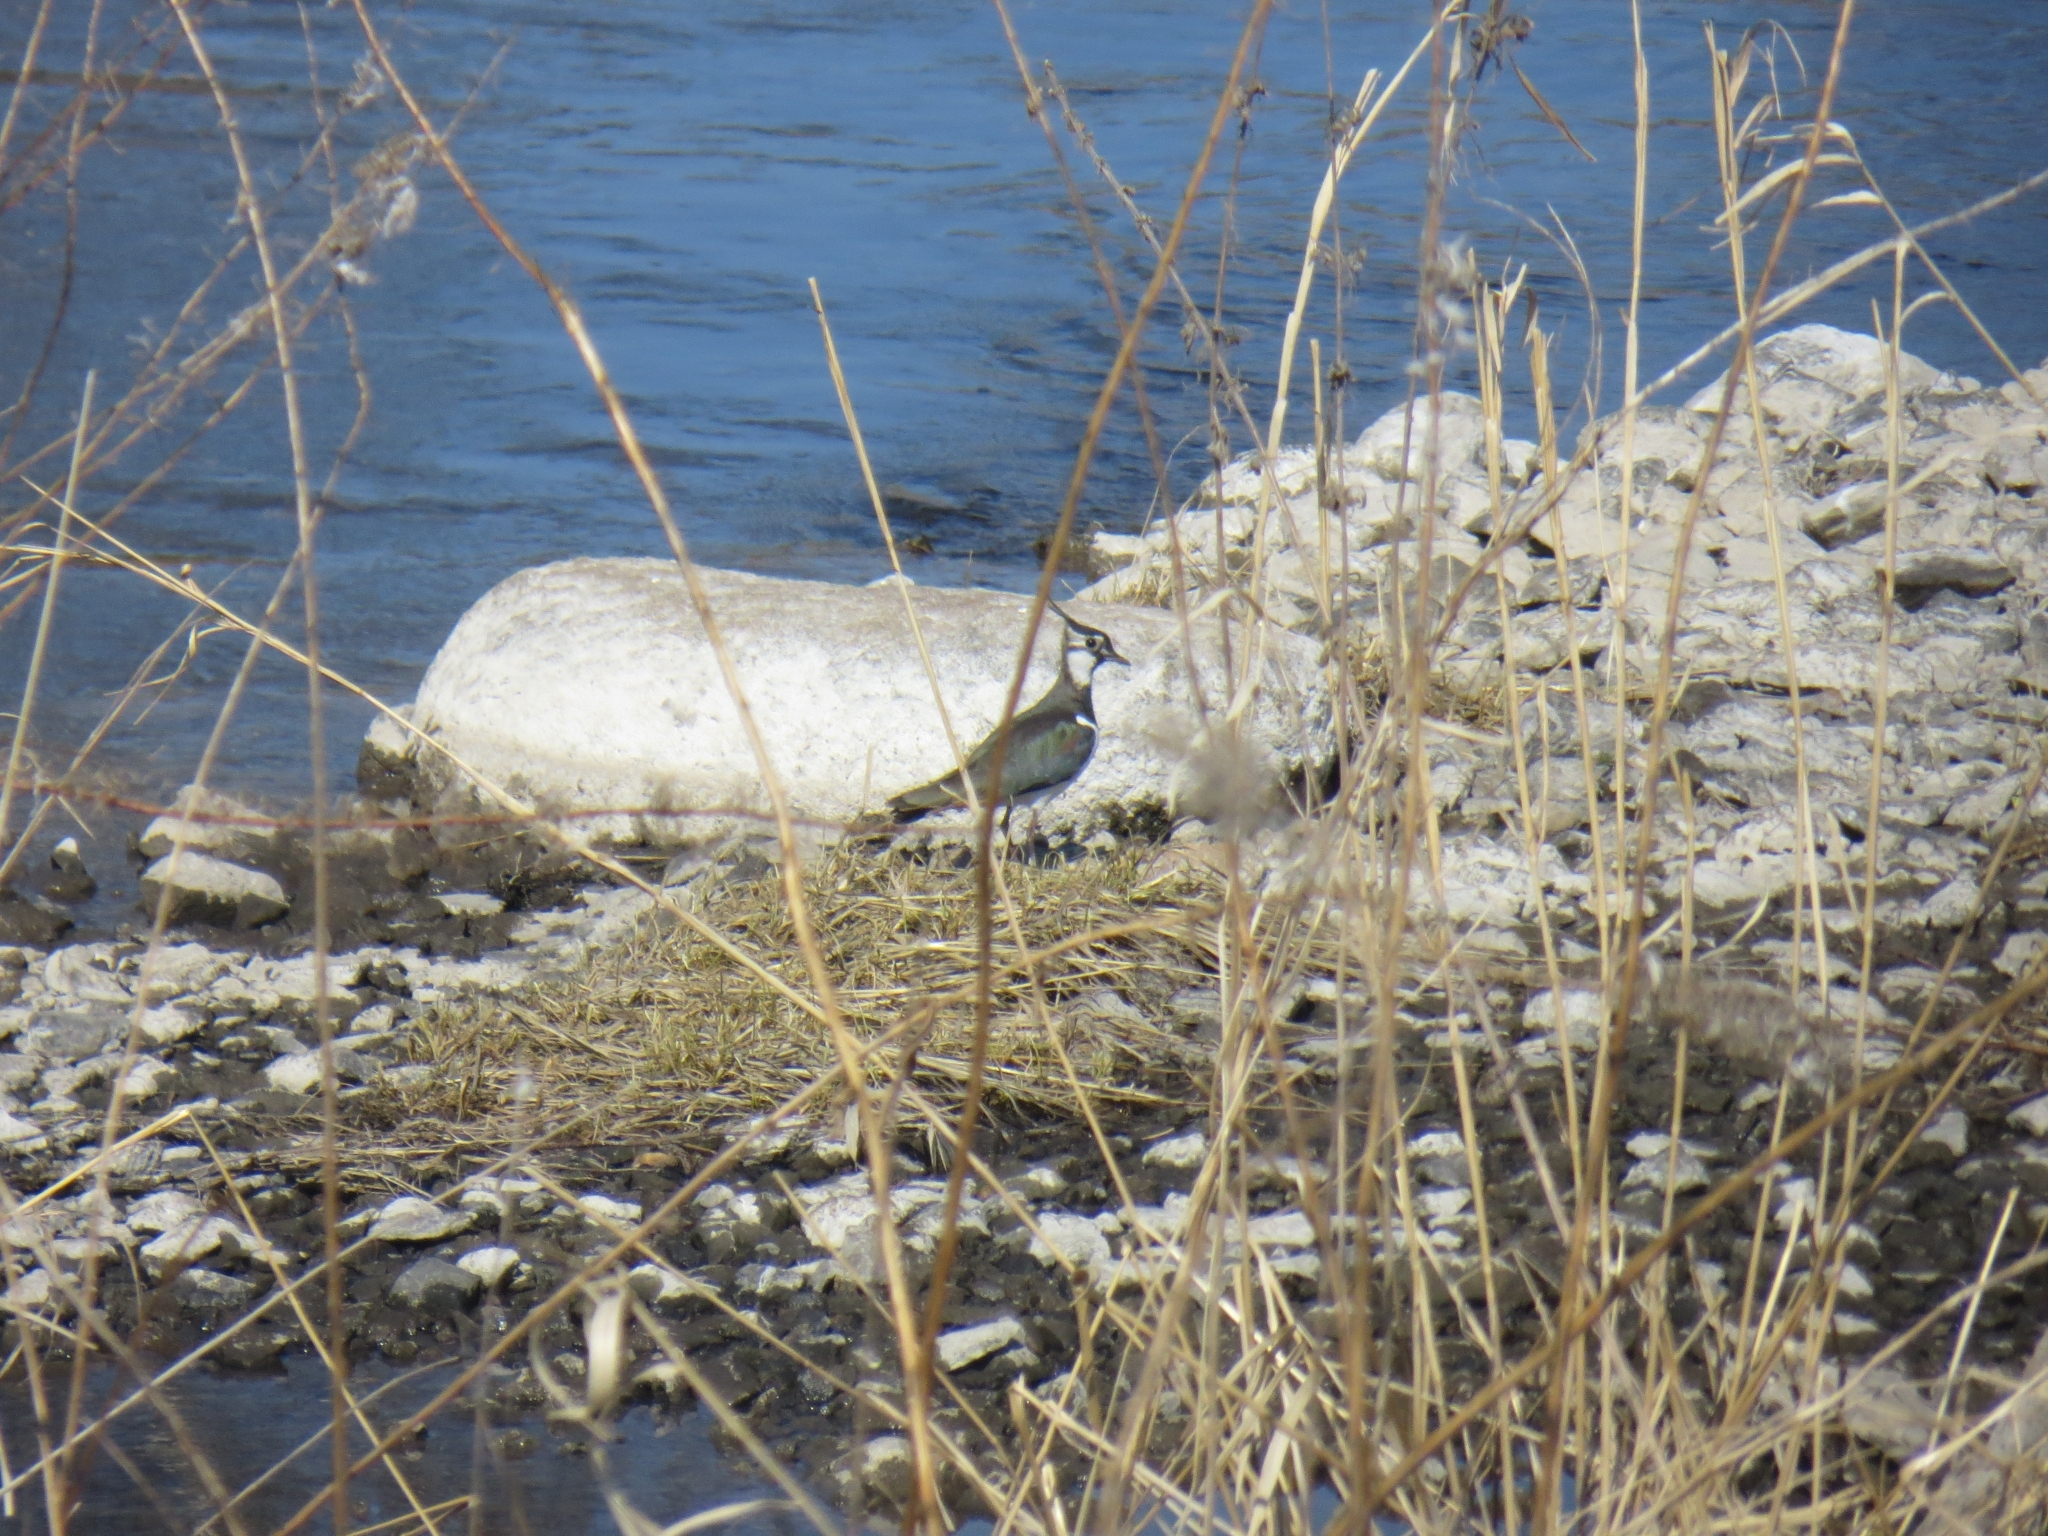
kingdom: Animalia
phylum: Chordata
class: Aves
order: Charadriiformes
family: Charadriidae
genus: Vanellus
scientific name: Vanellus vanellus
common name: Northern lapwing
